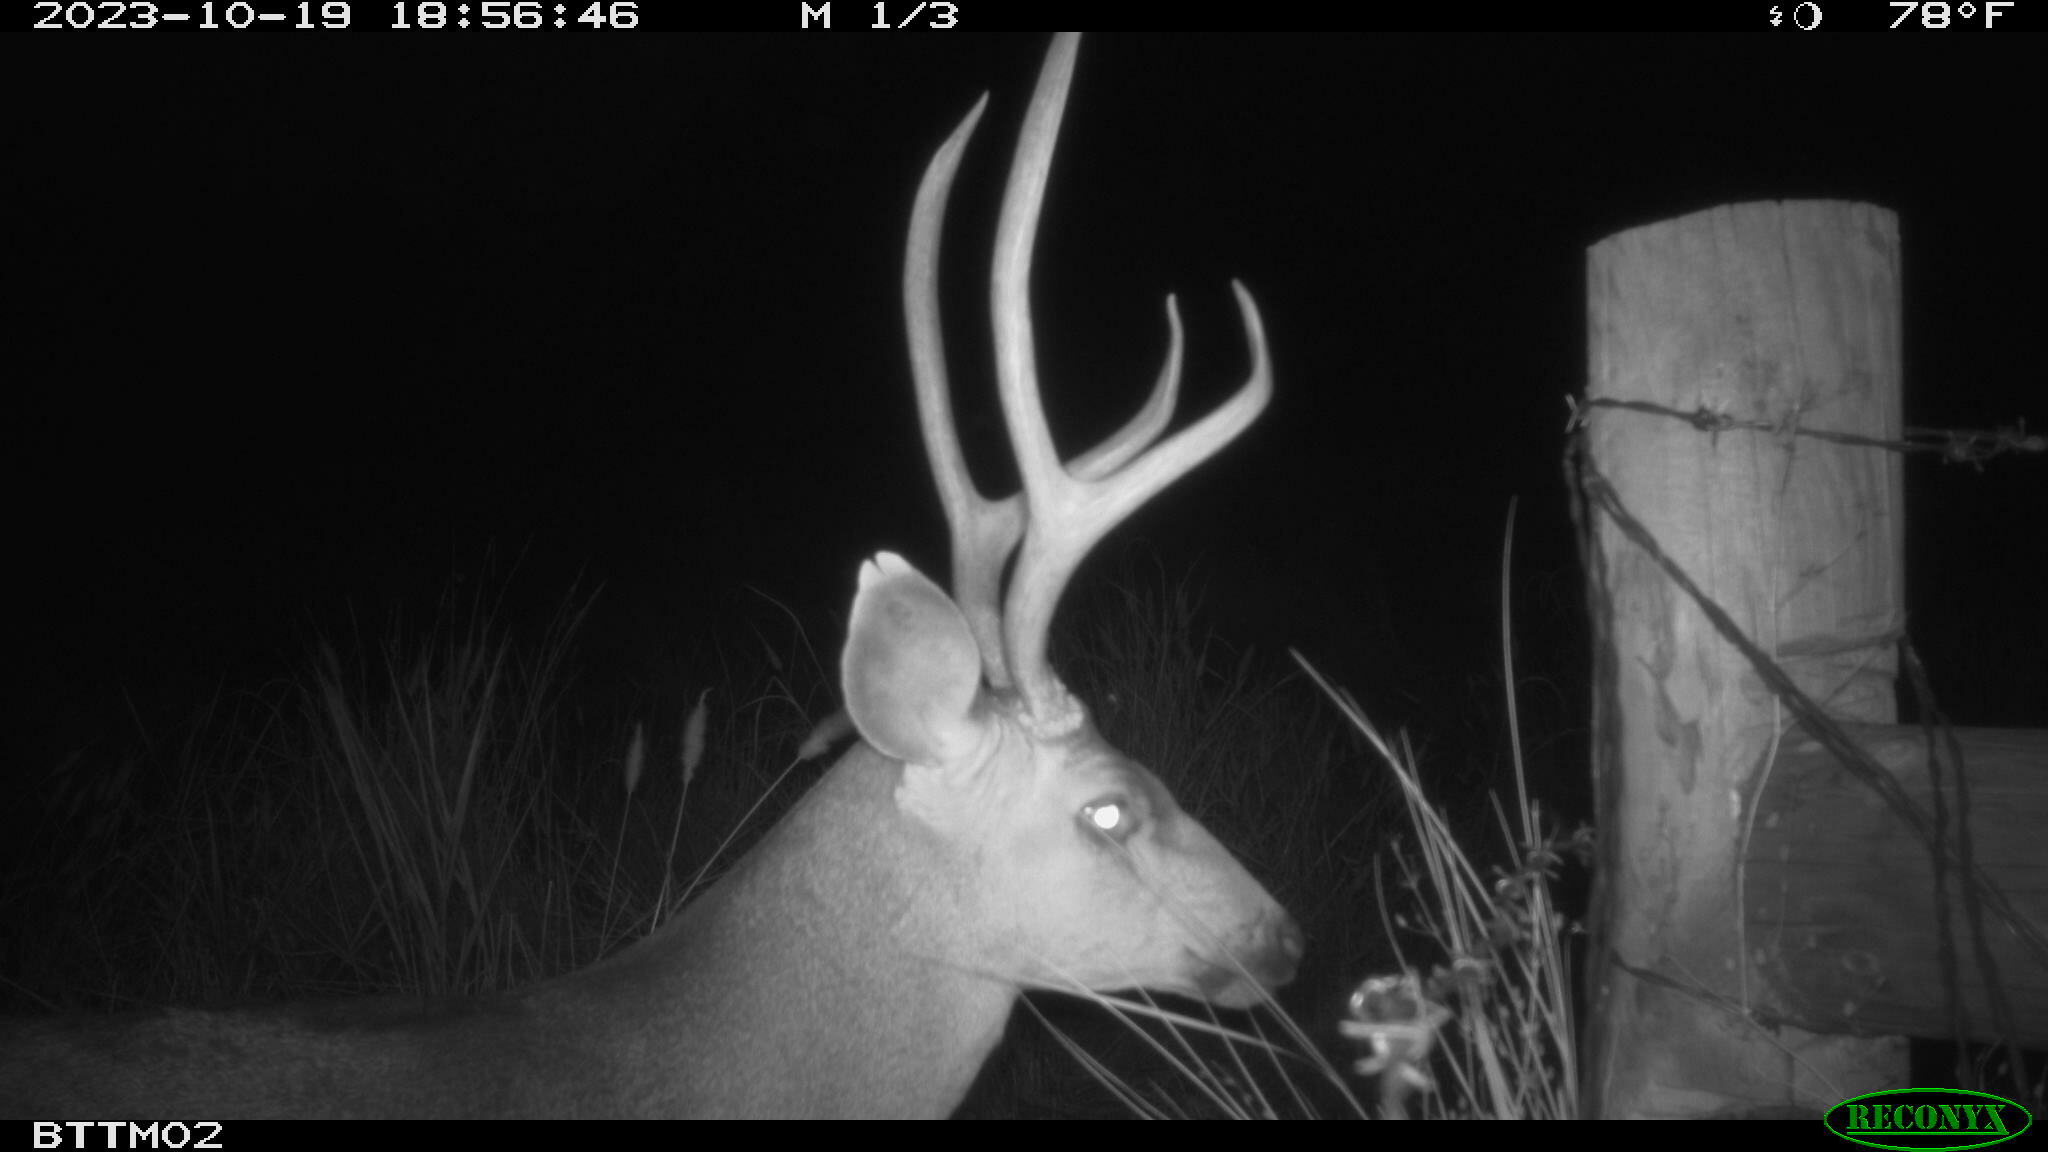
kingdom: Animalia
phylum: Chordata
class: Mammalia
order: Artiodactyla
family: Cervidae
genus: Odocoileus
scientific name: Odocoileus hemionus
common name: Mule deer
